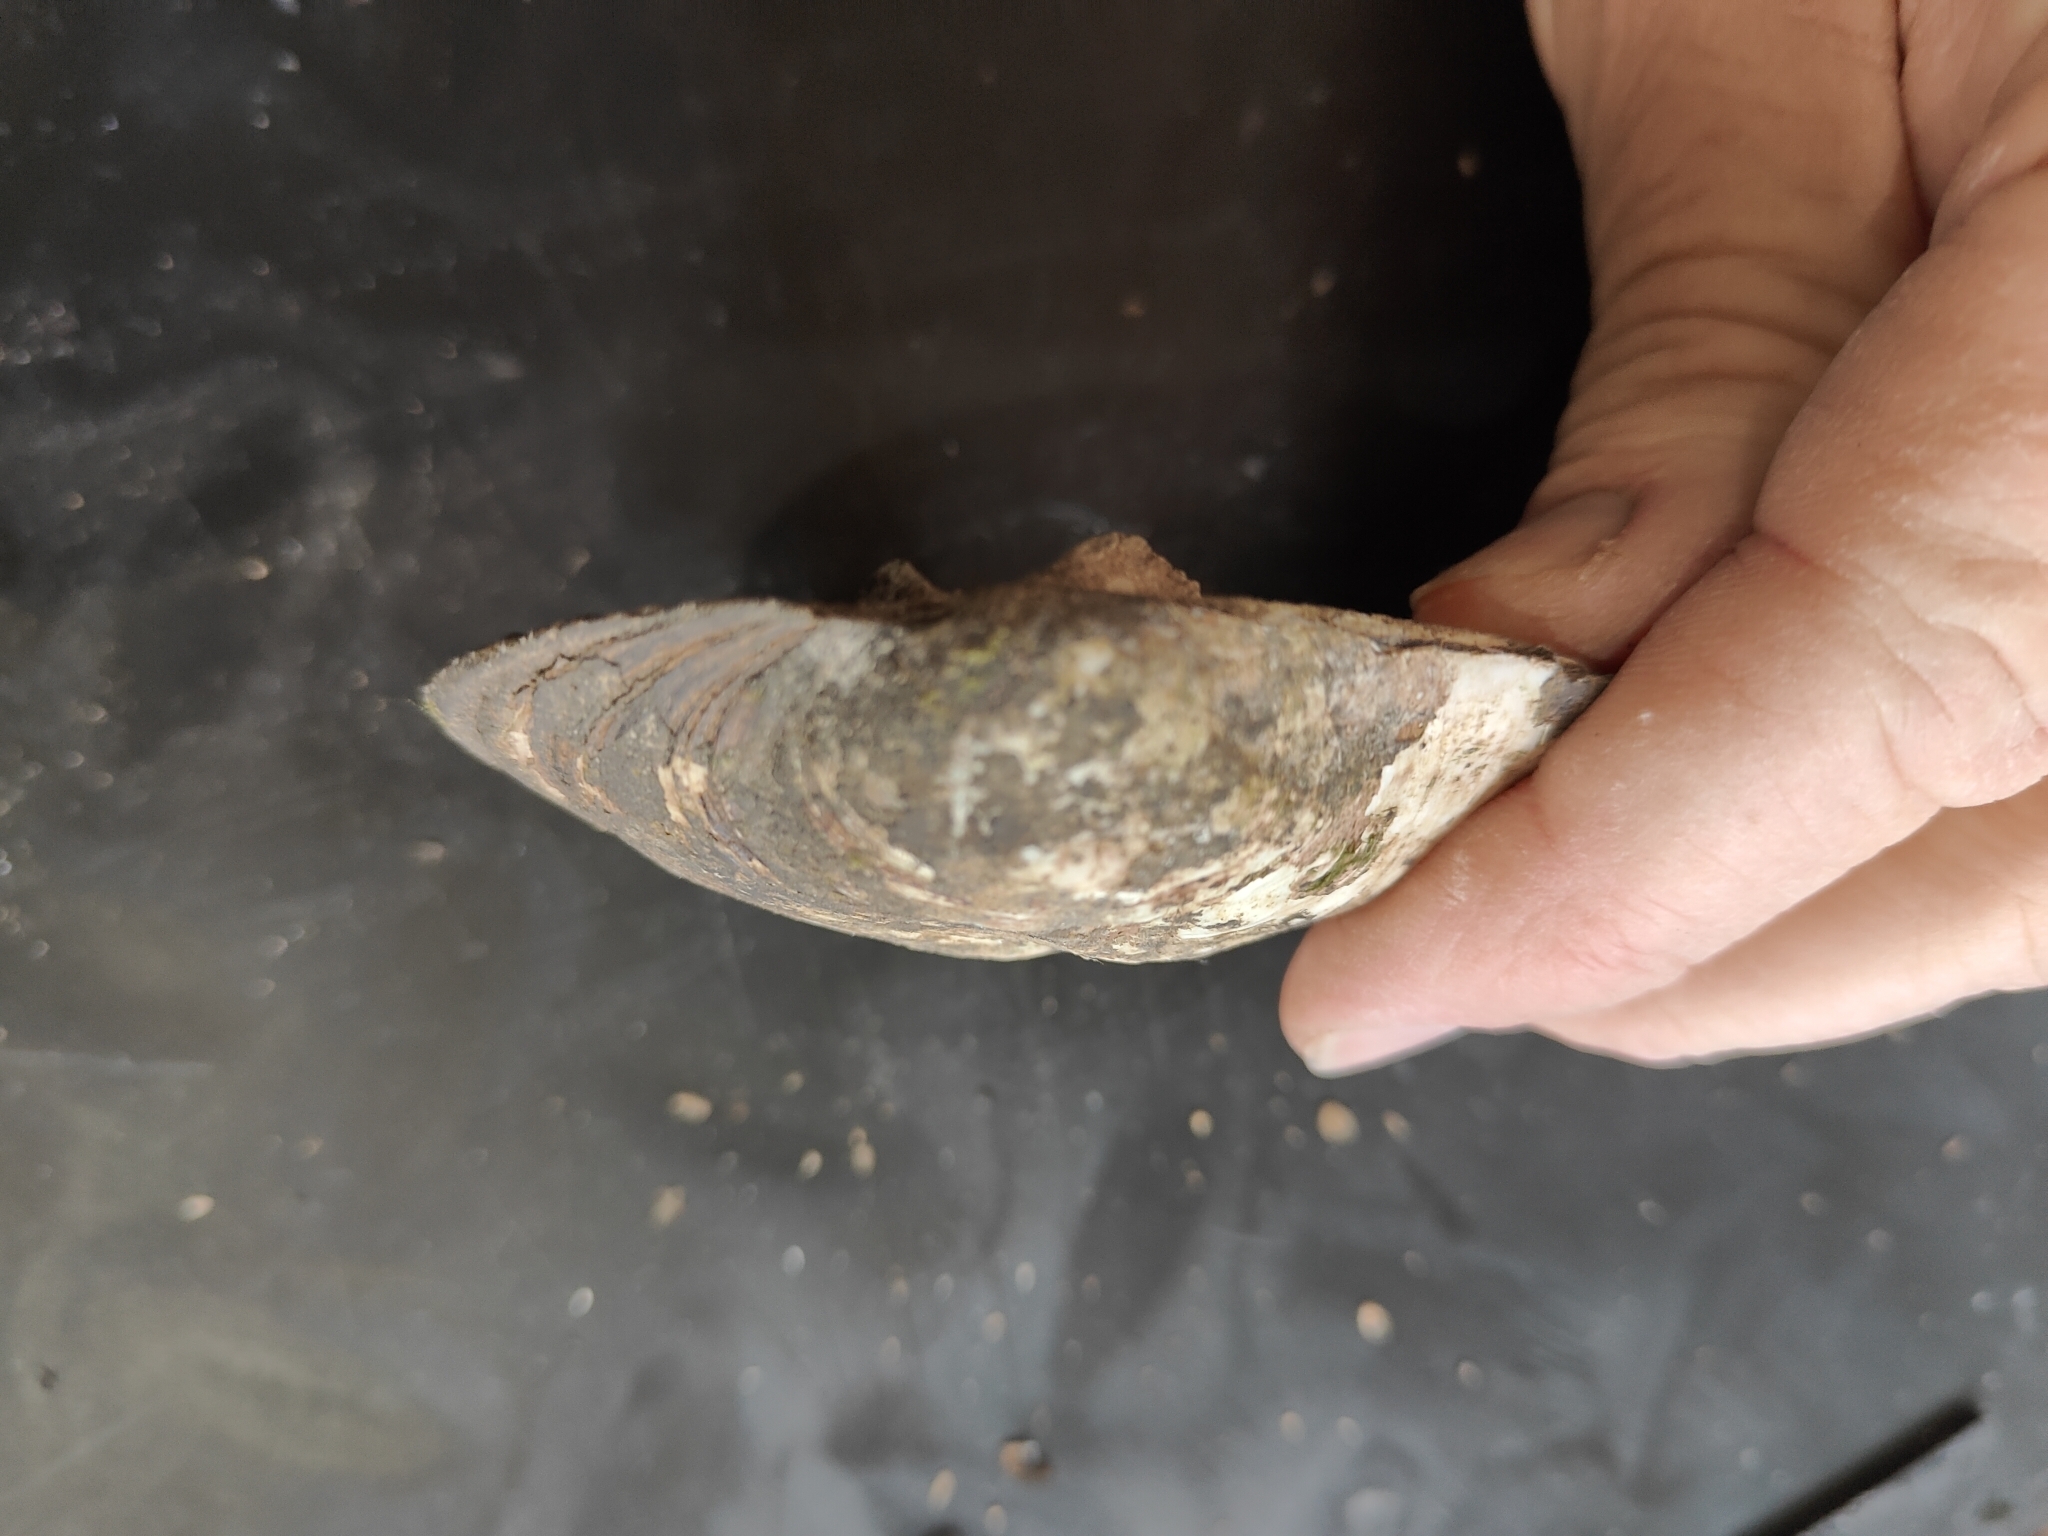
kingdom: Animalia
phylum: Mollusca
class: Bivalvia
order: Unionida
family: Unionidae
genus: Amblema
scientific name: Amblema plicata
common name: Threeridge
